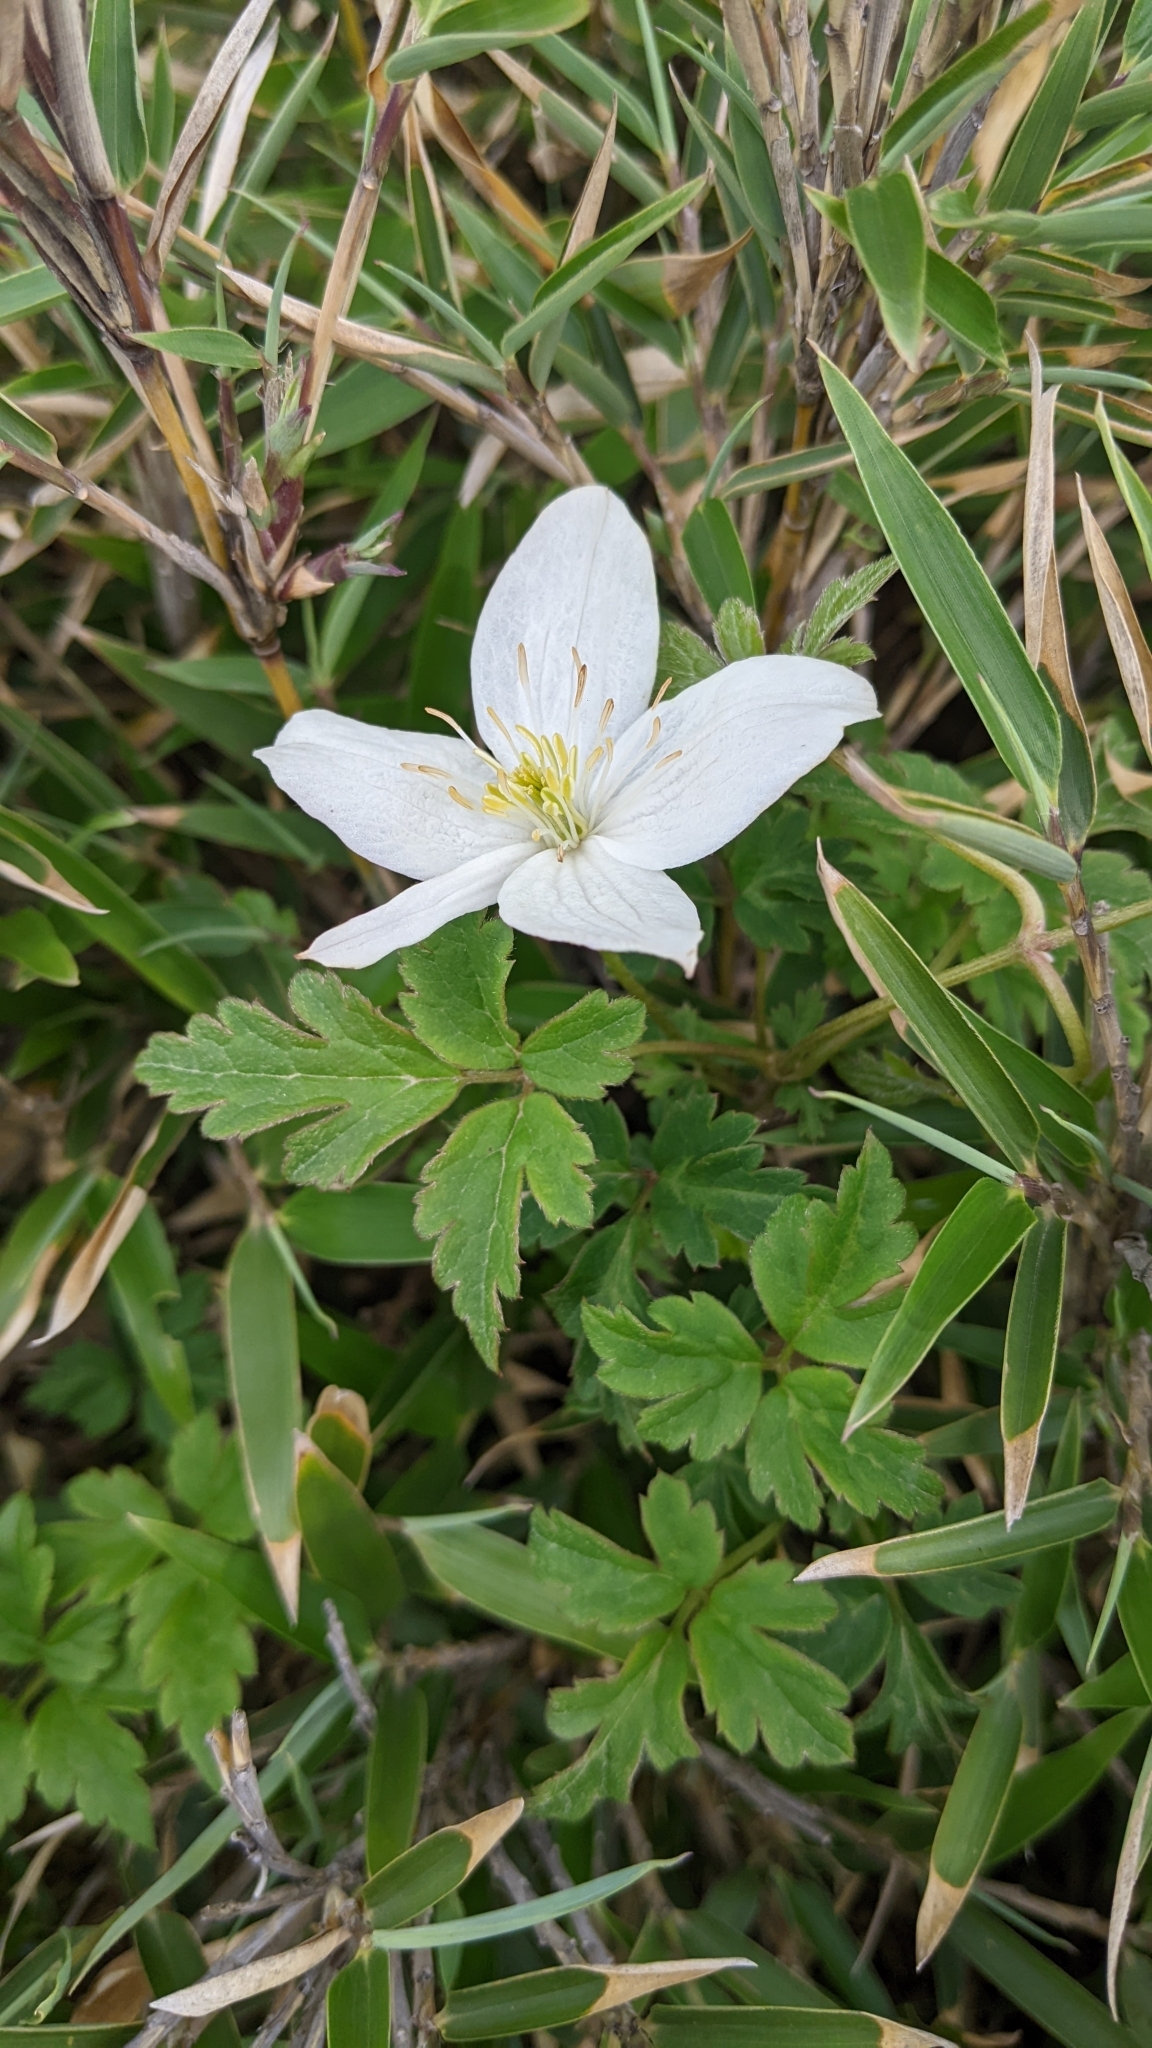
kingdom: Plantae
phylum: Tracheophyta
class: Magnoliopsida
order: Ranunculales
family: Ranunculaceae
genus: Clematis
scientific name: Clematis montana
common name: Himalayan clematis
